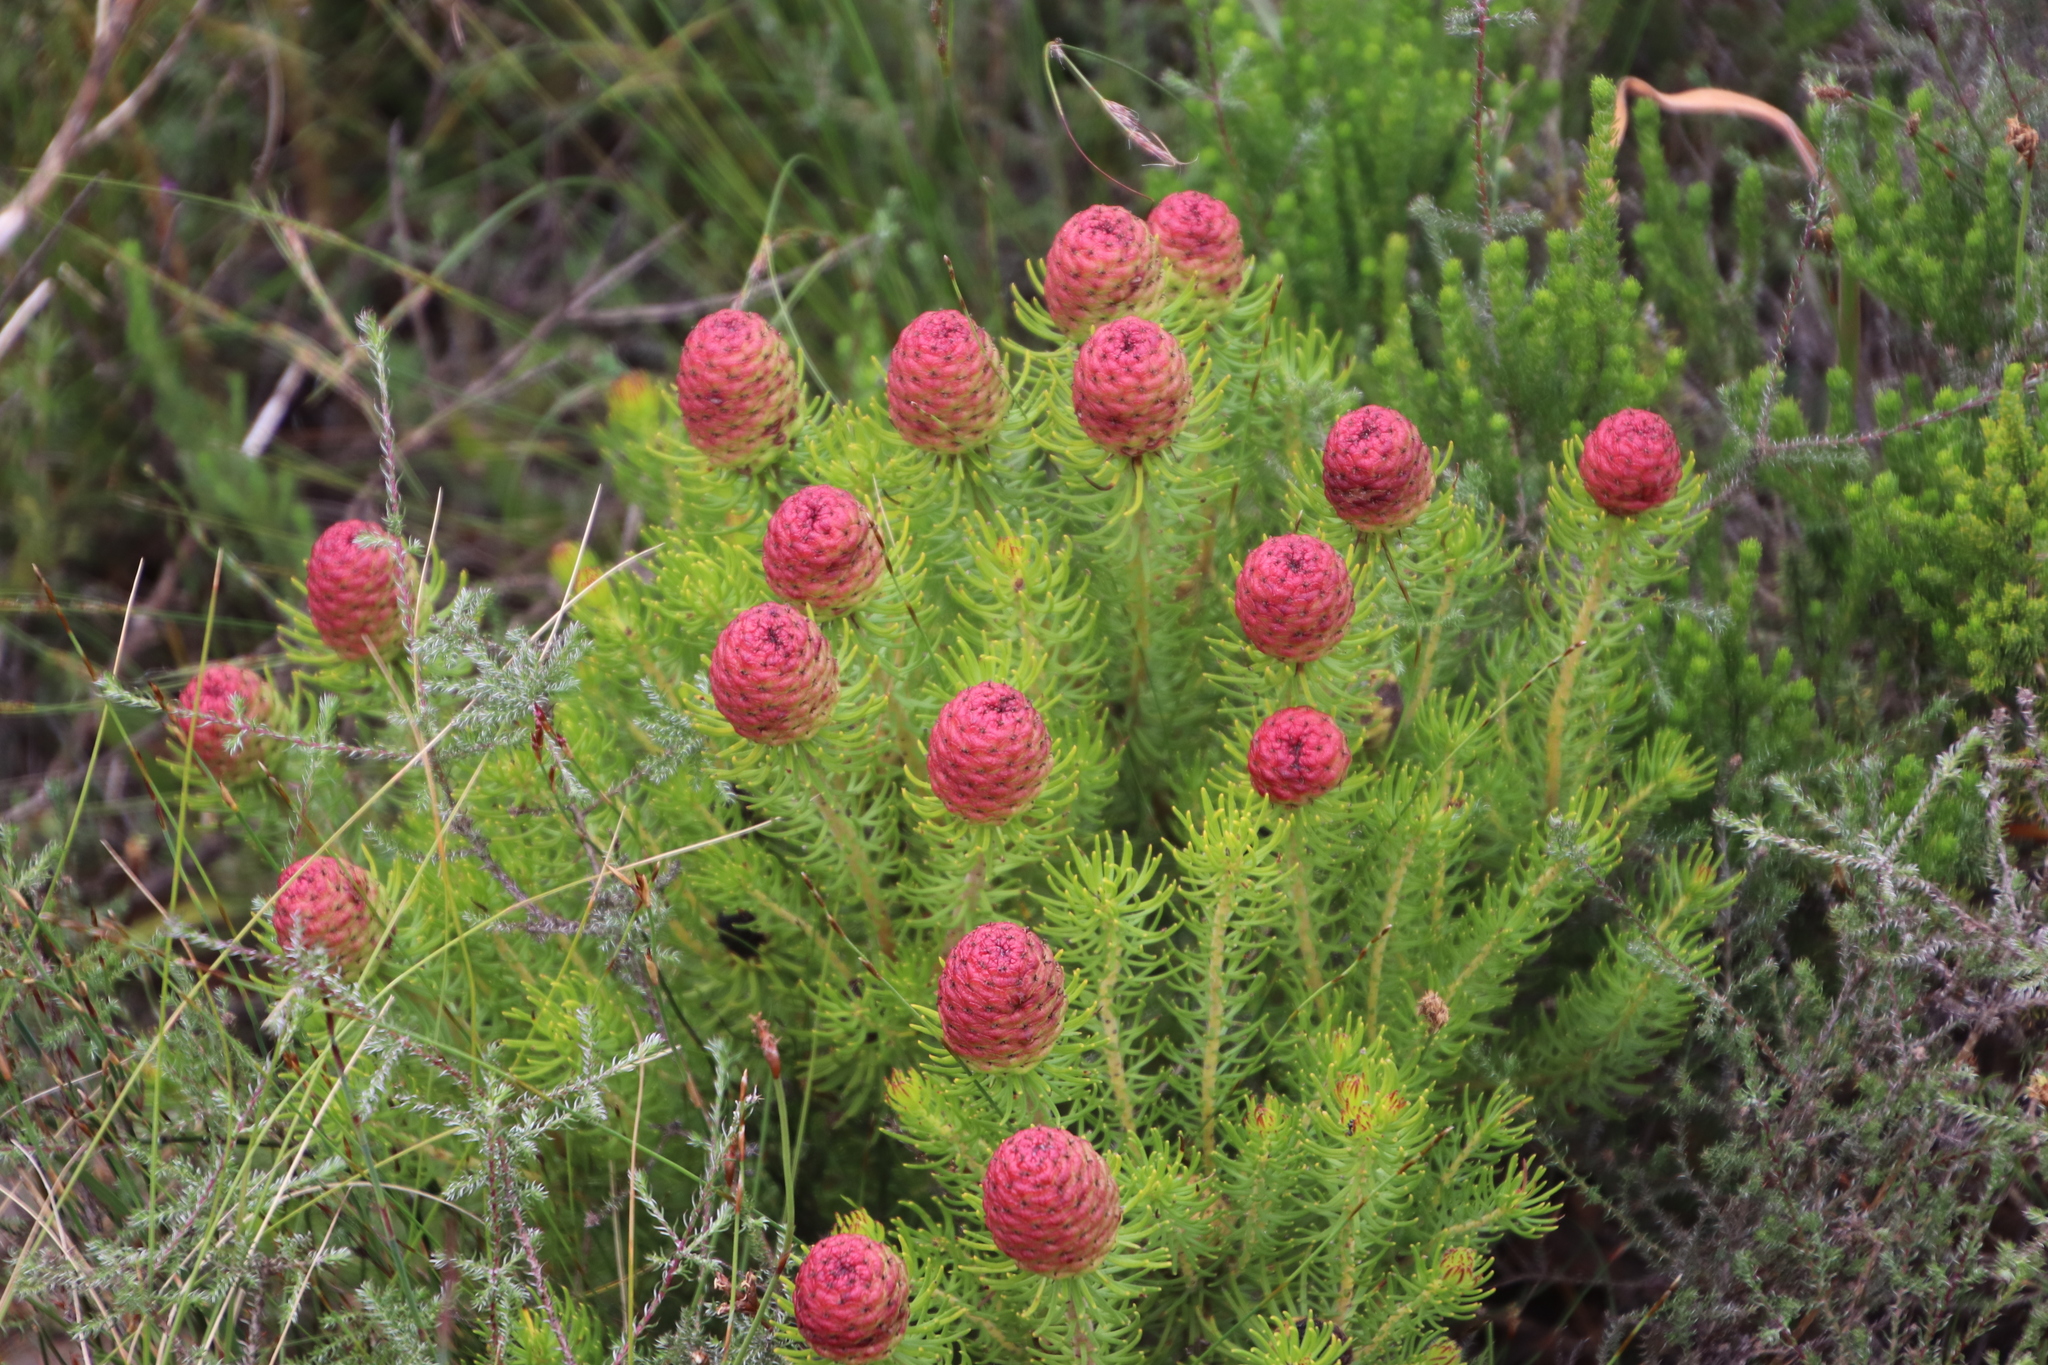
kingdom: Plantae
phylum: Tracheophyta
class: Magnoliopsida
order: Proteales
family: Proteaceae
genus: Leucadendron
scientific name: Leucadendron teretifolium
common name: Needle-leaf conebush
